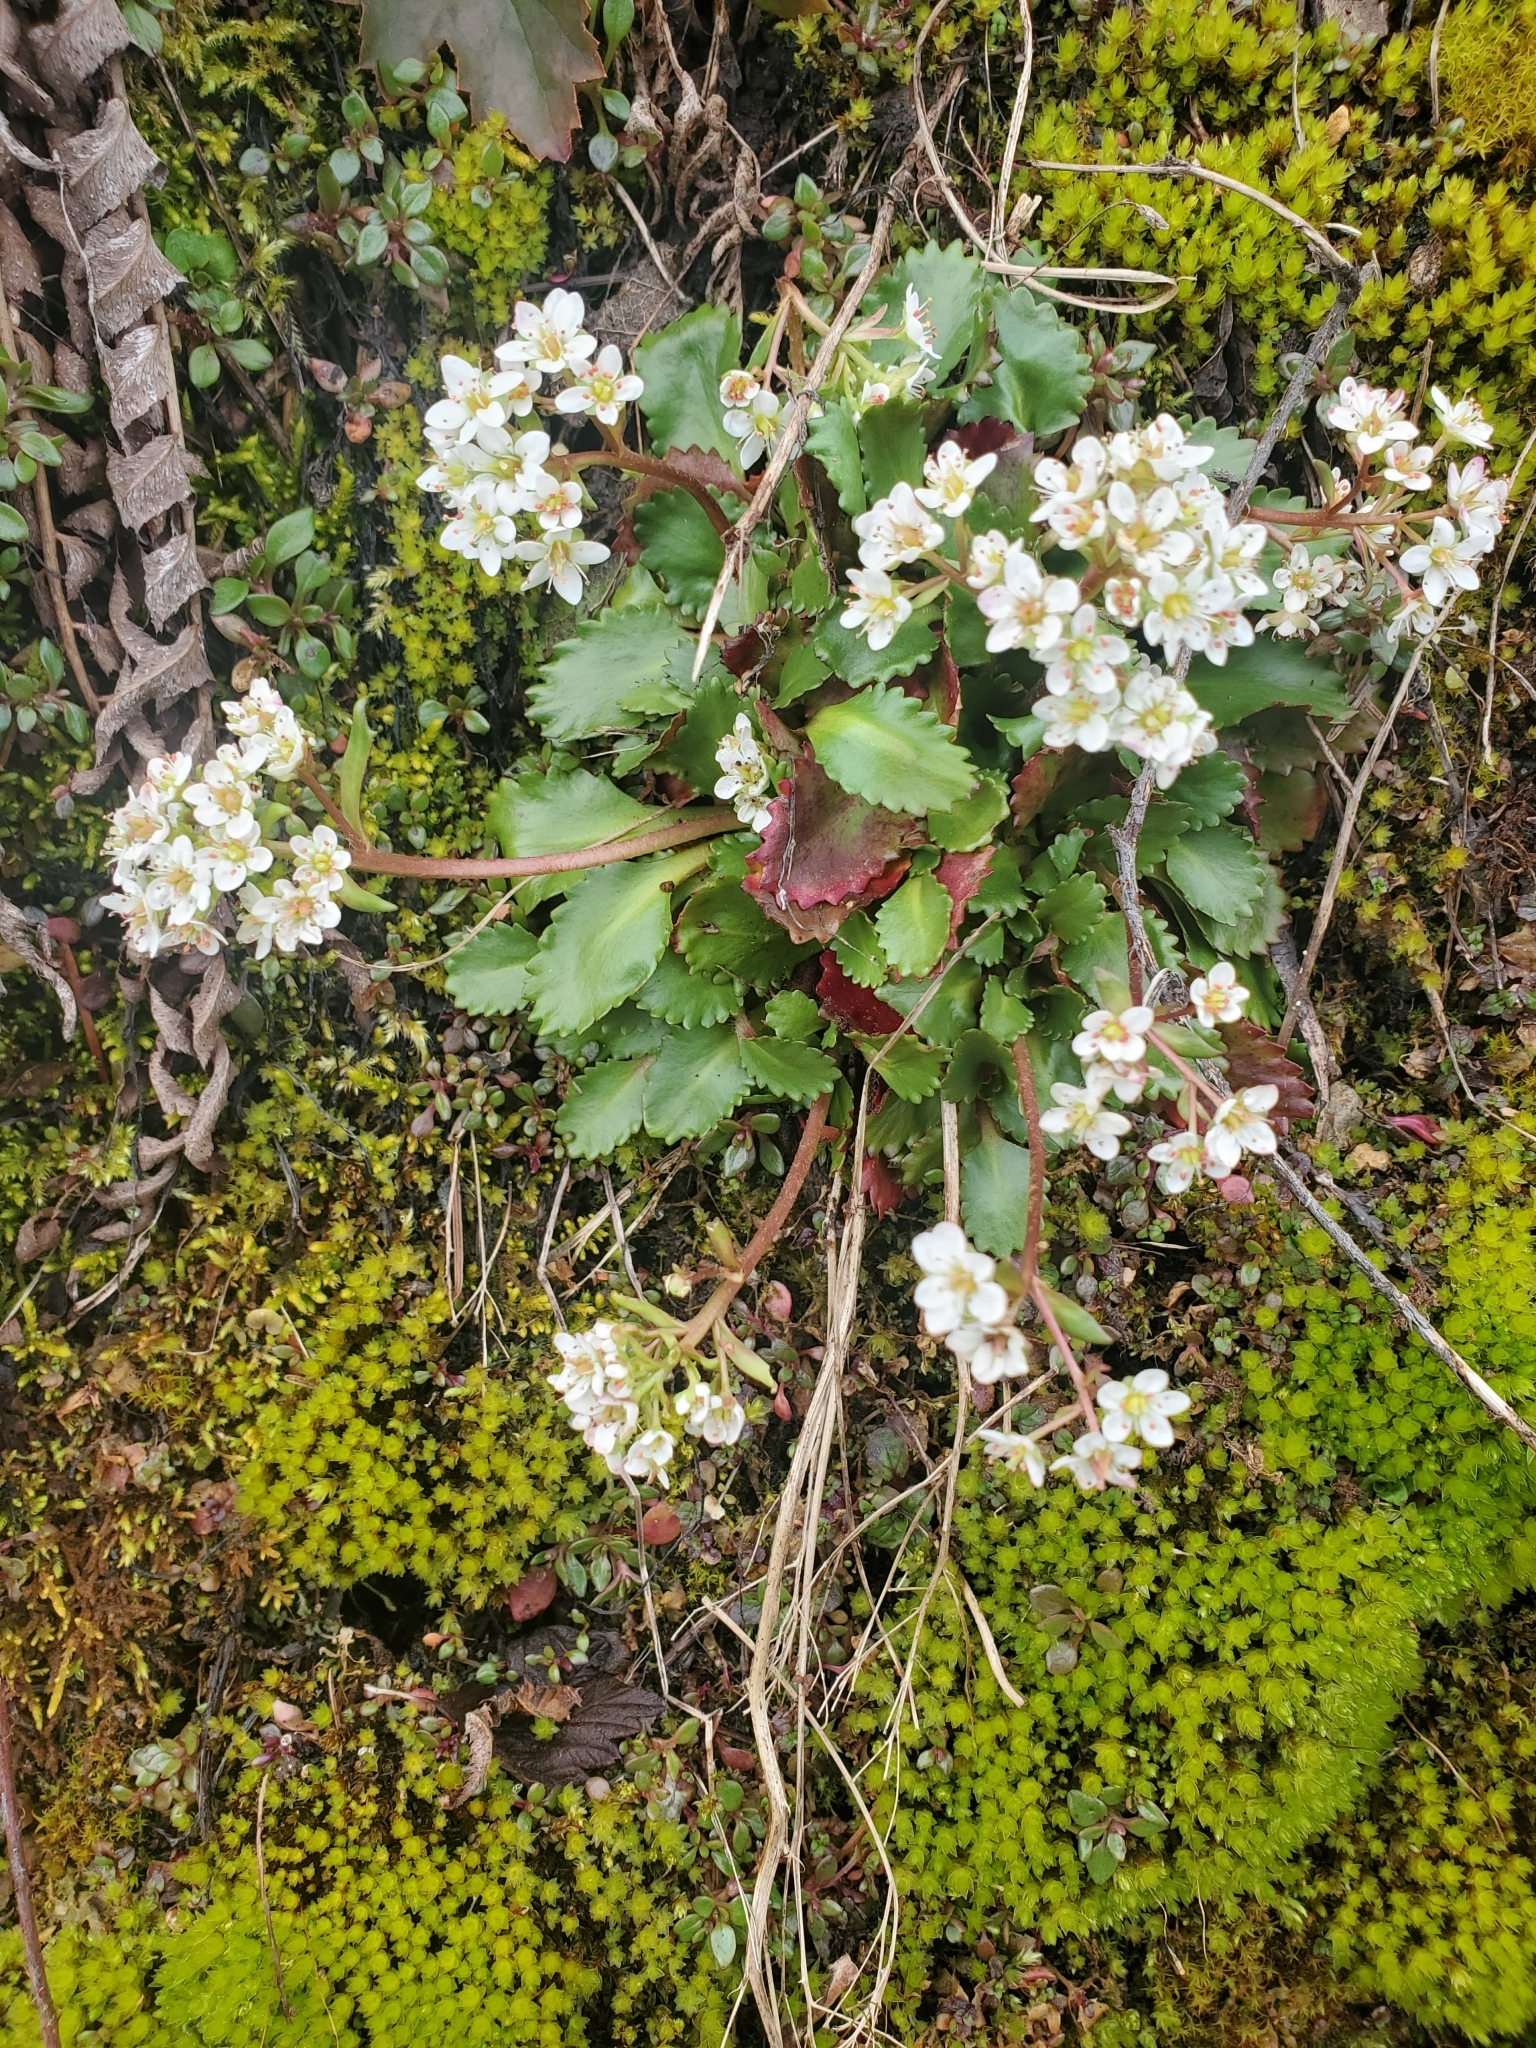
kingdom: Plantae
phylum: Tracheophyta
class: Magnoliopsida
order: Saxifragales
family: Saxifragaceae
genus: Micranthes
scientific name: Micranthes rufidula
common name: Rustyhair saxifrage
